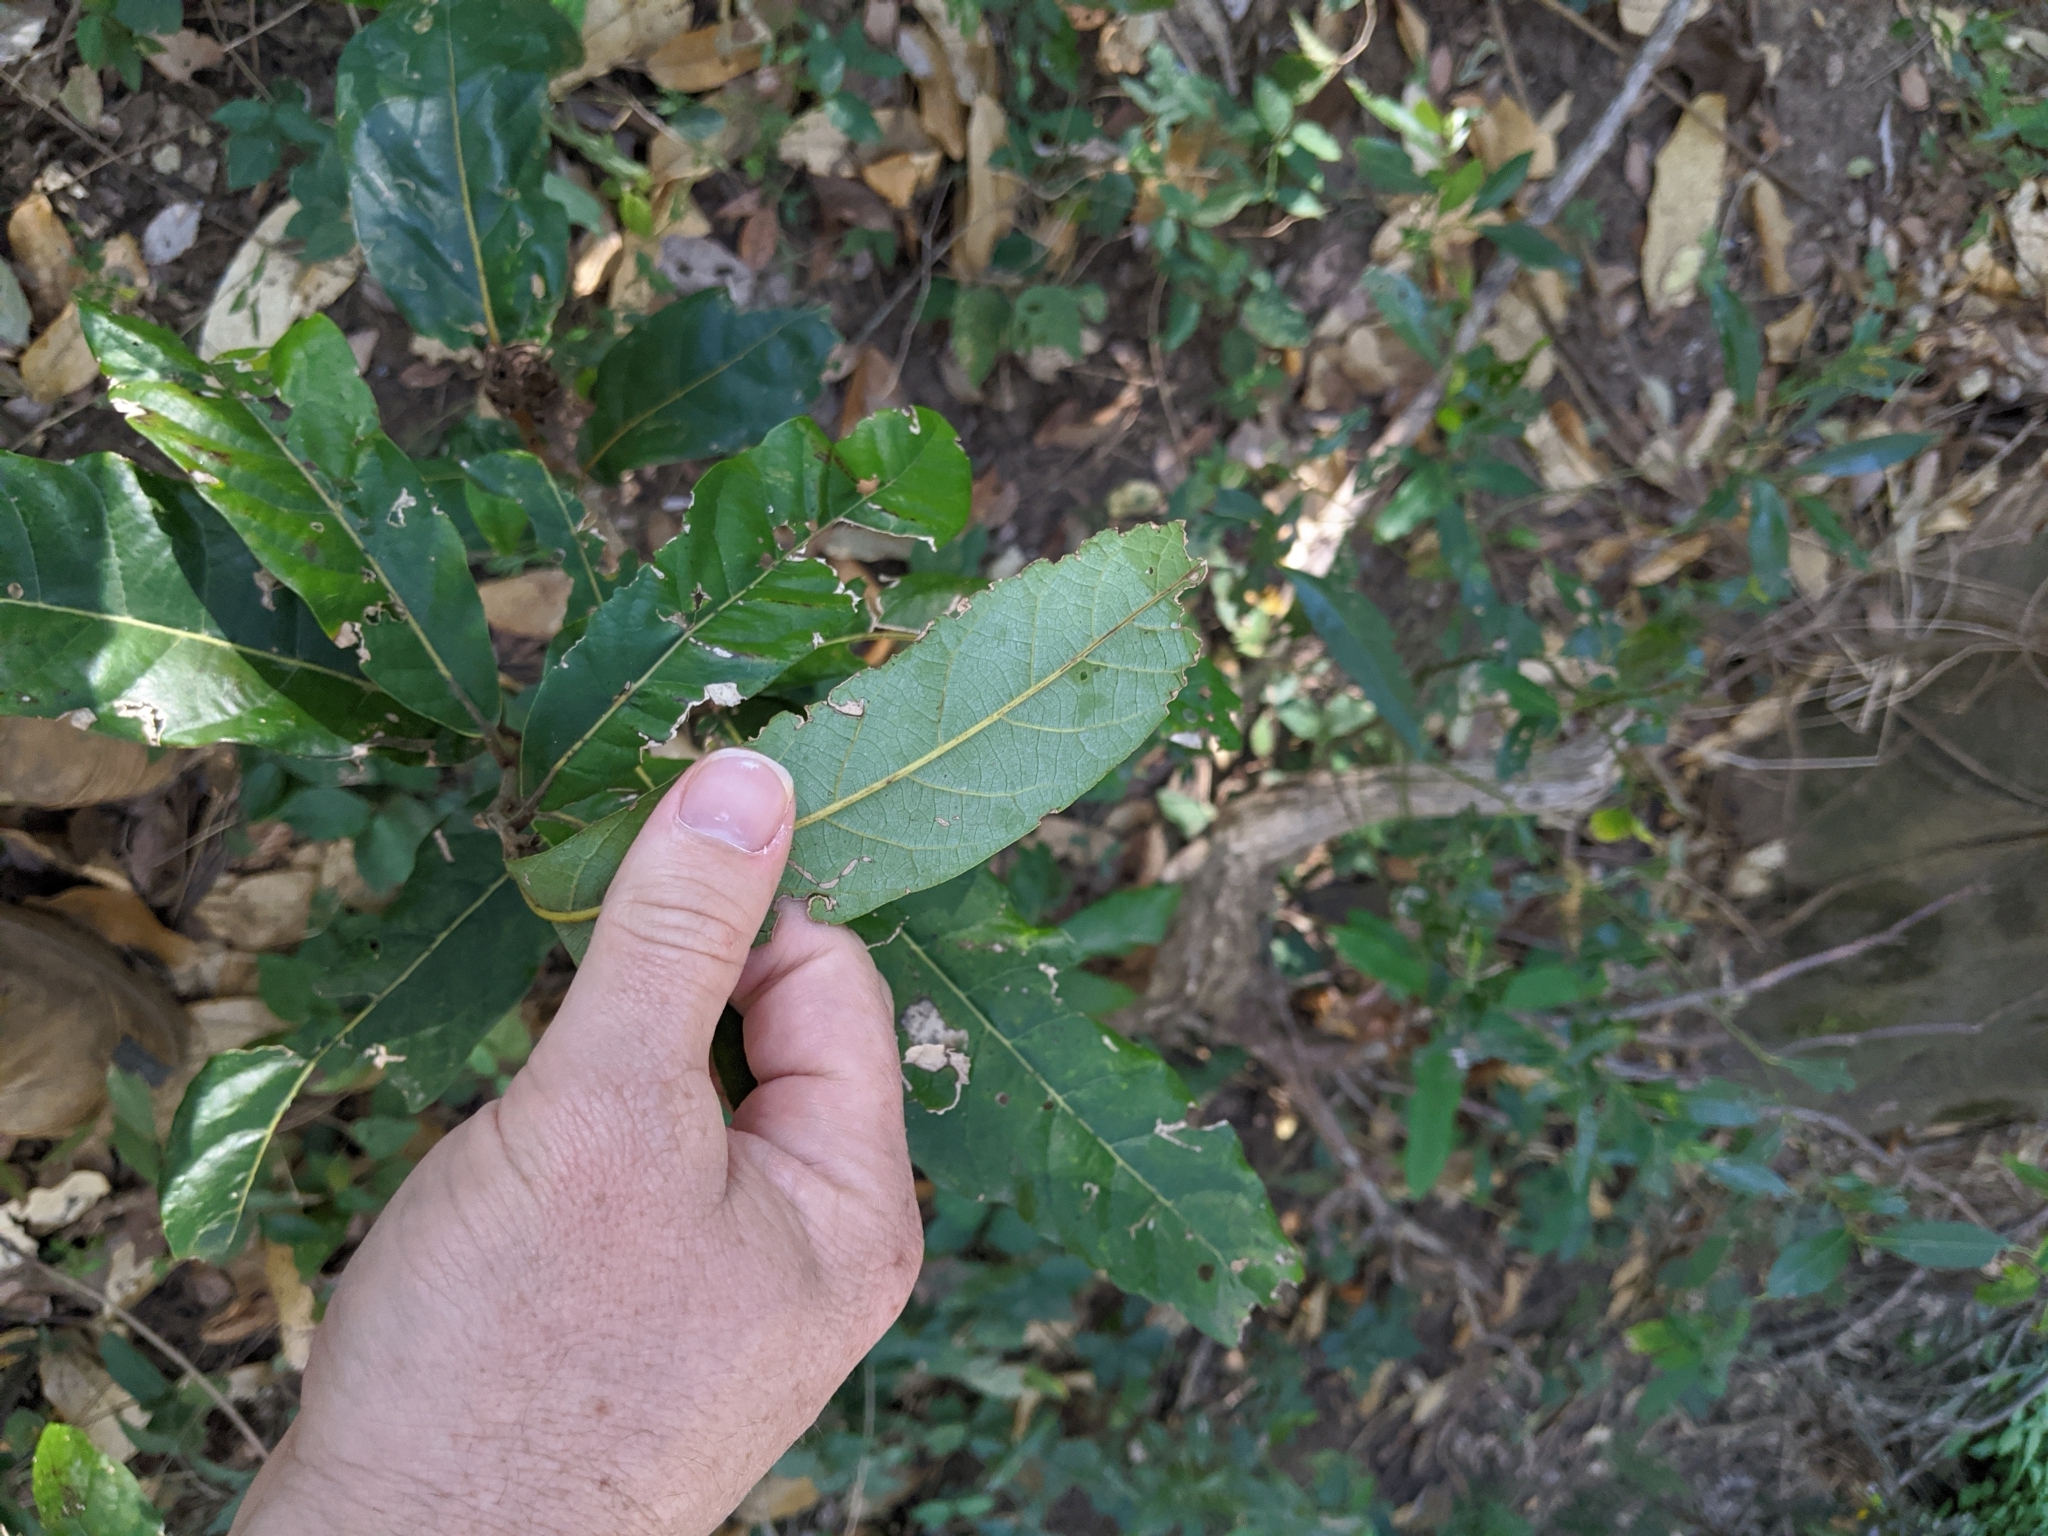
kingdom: Plantae
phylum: Tracheophyta
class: Magnoliopsida
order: Laurales
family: Lauraceae
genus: Cryptocarya
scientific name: Cryptocarya obovata
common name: Pepperberry-tree
